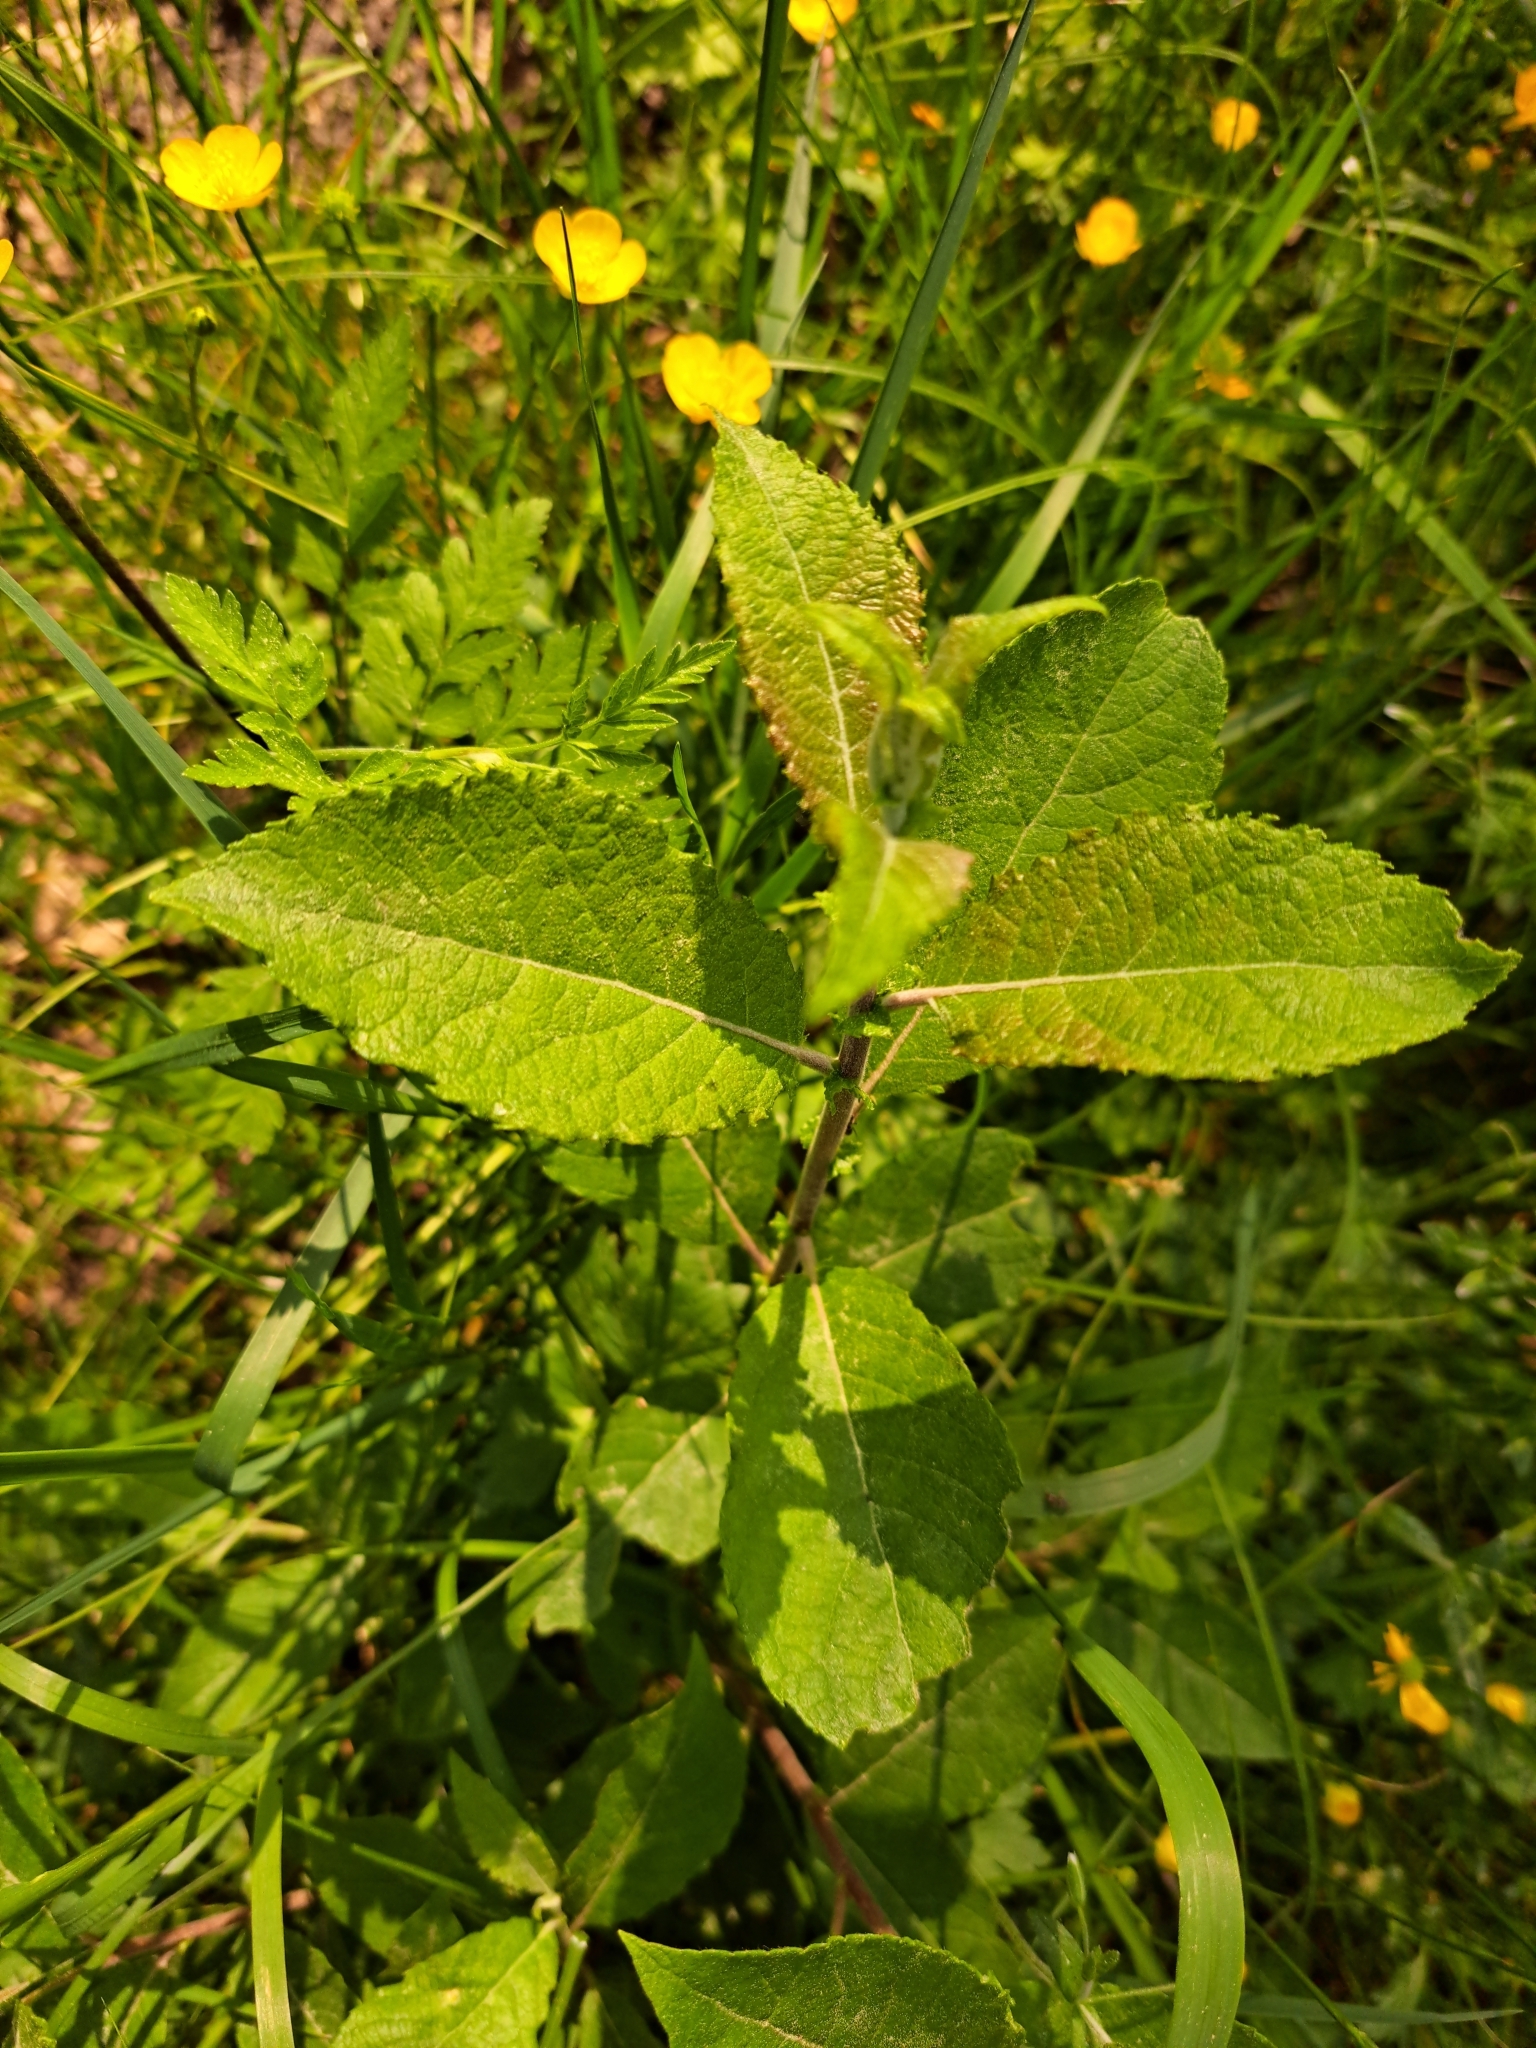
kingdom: Plantae
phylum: Tracheophyta
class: Magnoliopsida
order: Malpighiales
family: Salicaceae
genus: Salix
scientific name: Salix caprea
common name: Goat willow
